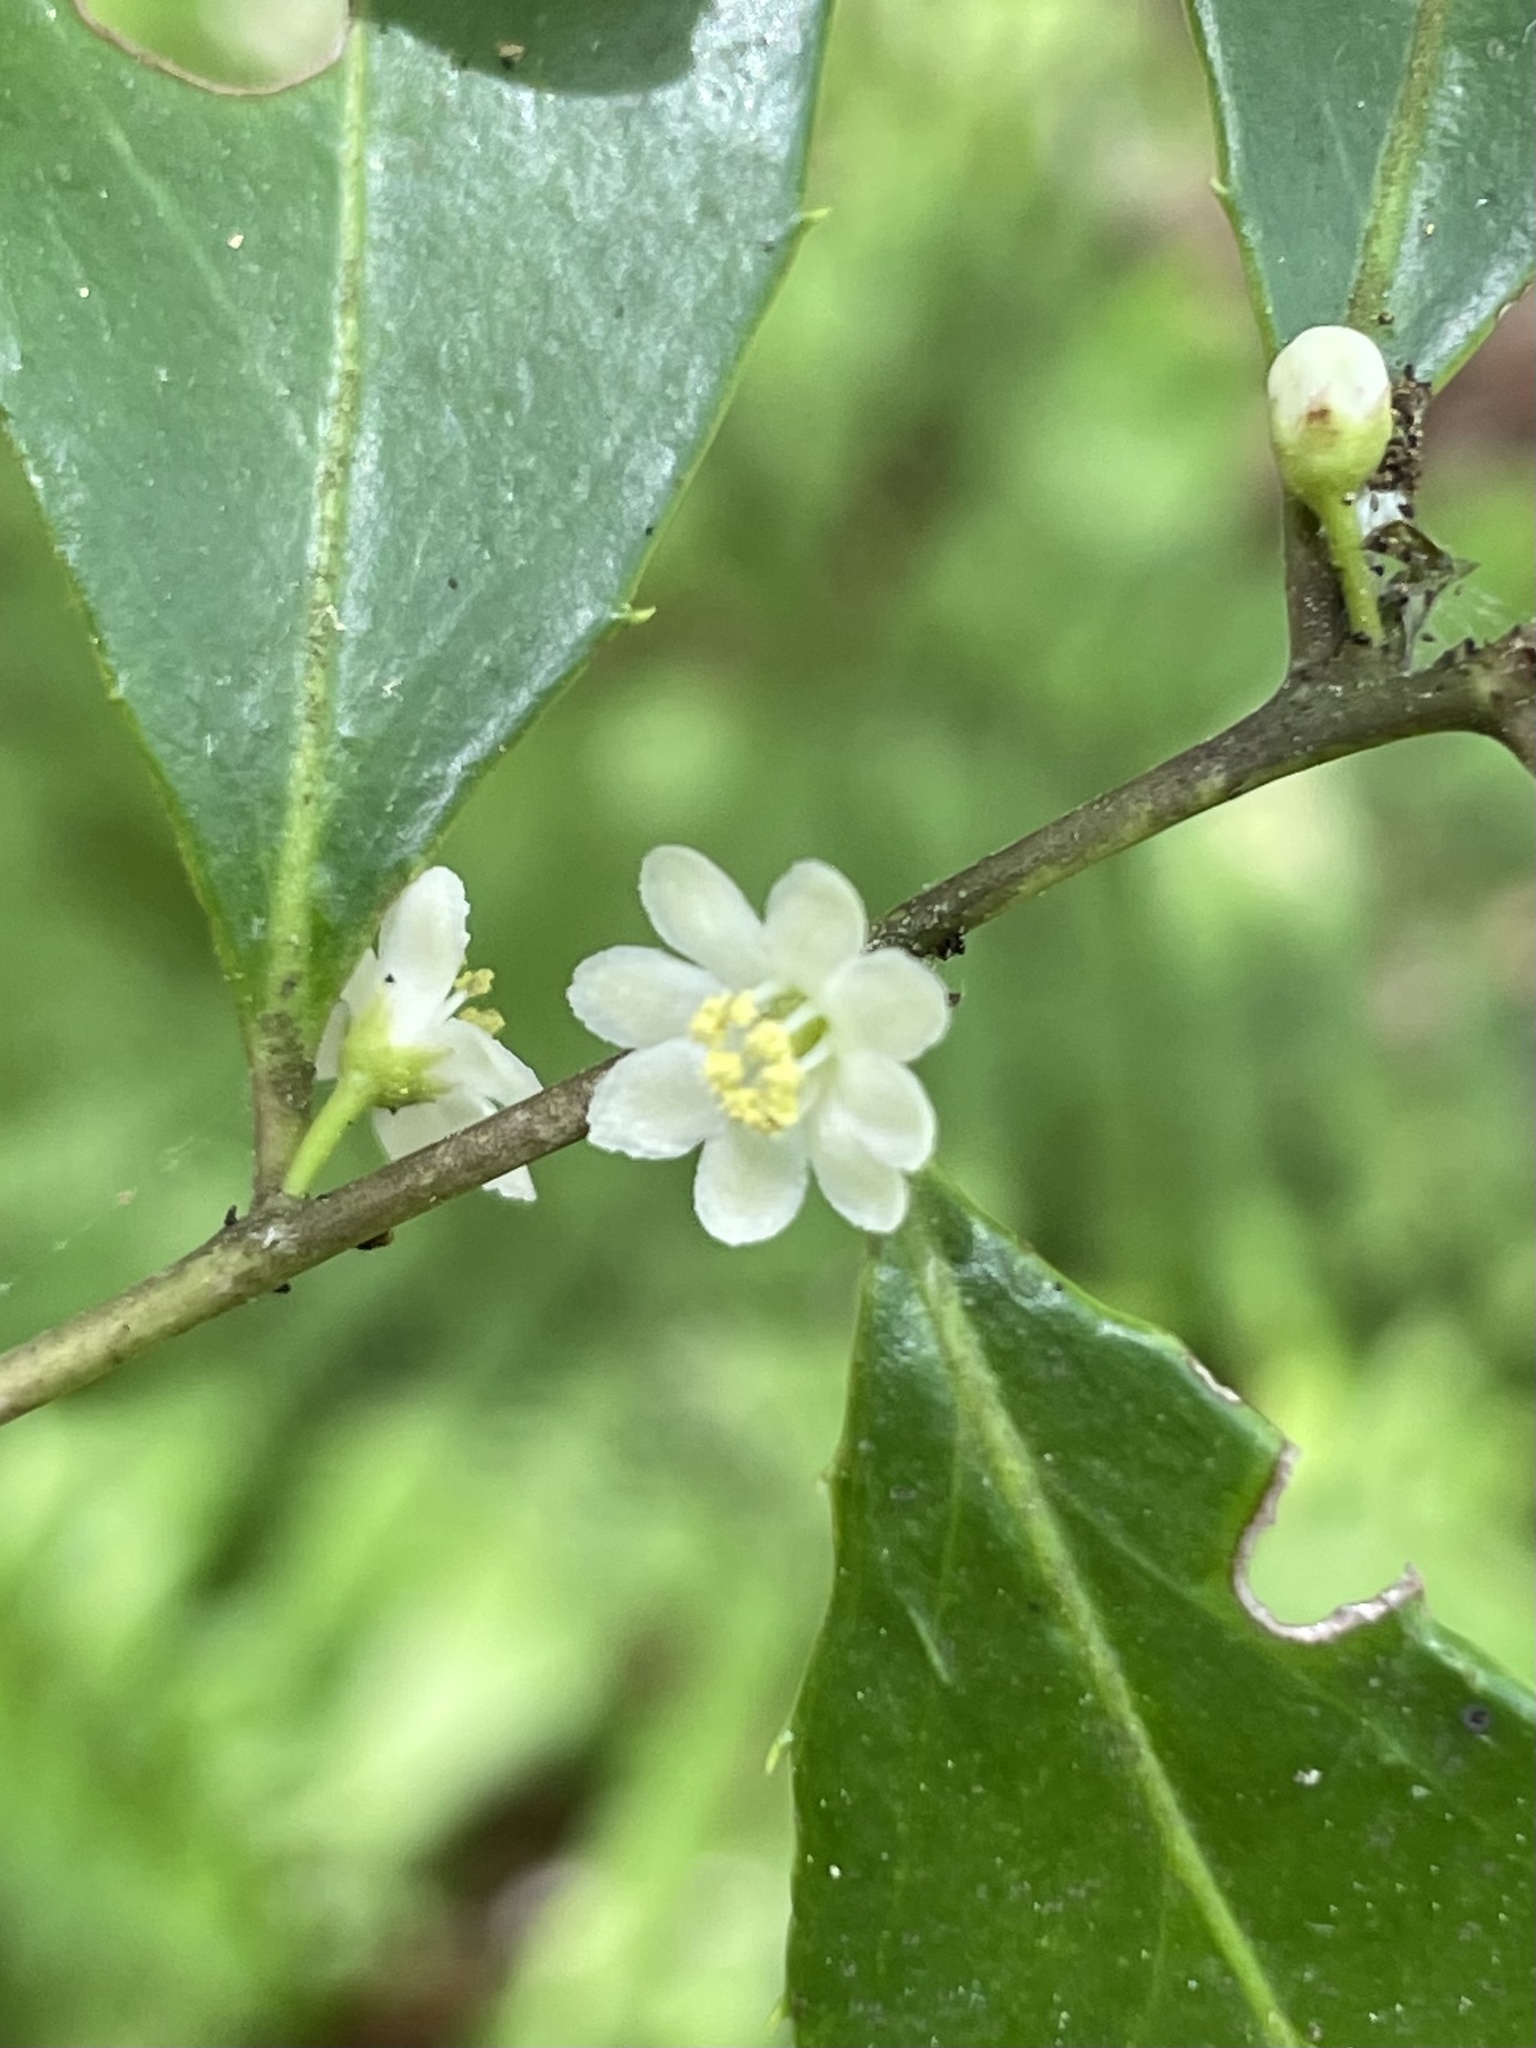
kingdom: Plantae
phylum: Tracheophyta
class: Magnoliopsida
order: Aquifoliales
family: Aquifoliaceae
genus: Ilex
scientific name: Ilex coriacea
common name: Sweet gallberry
